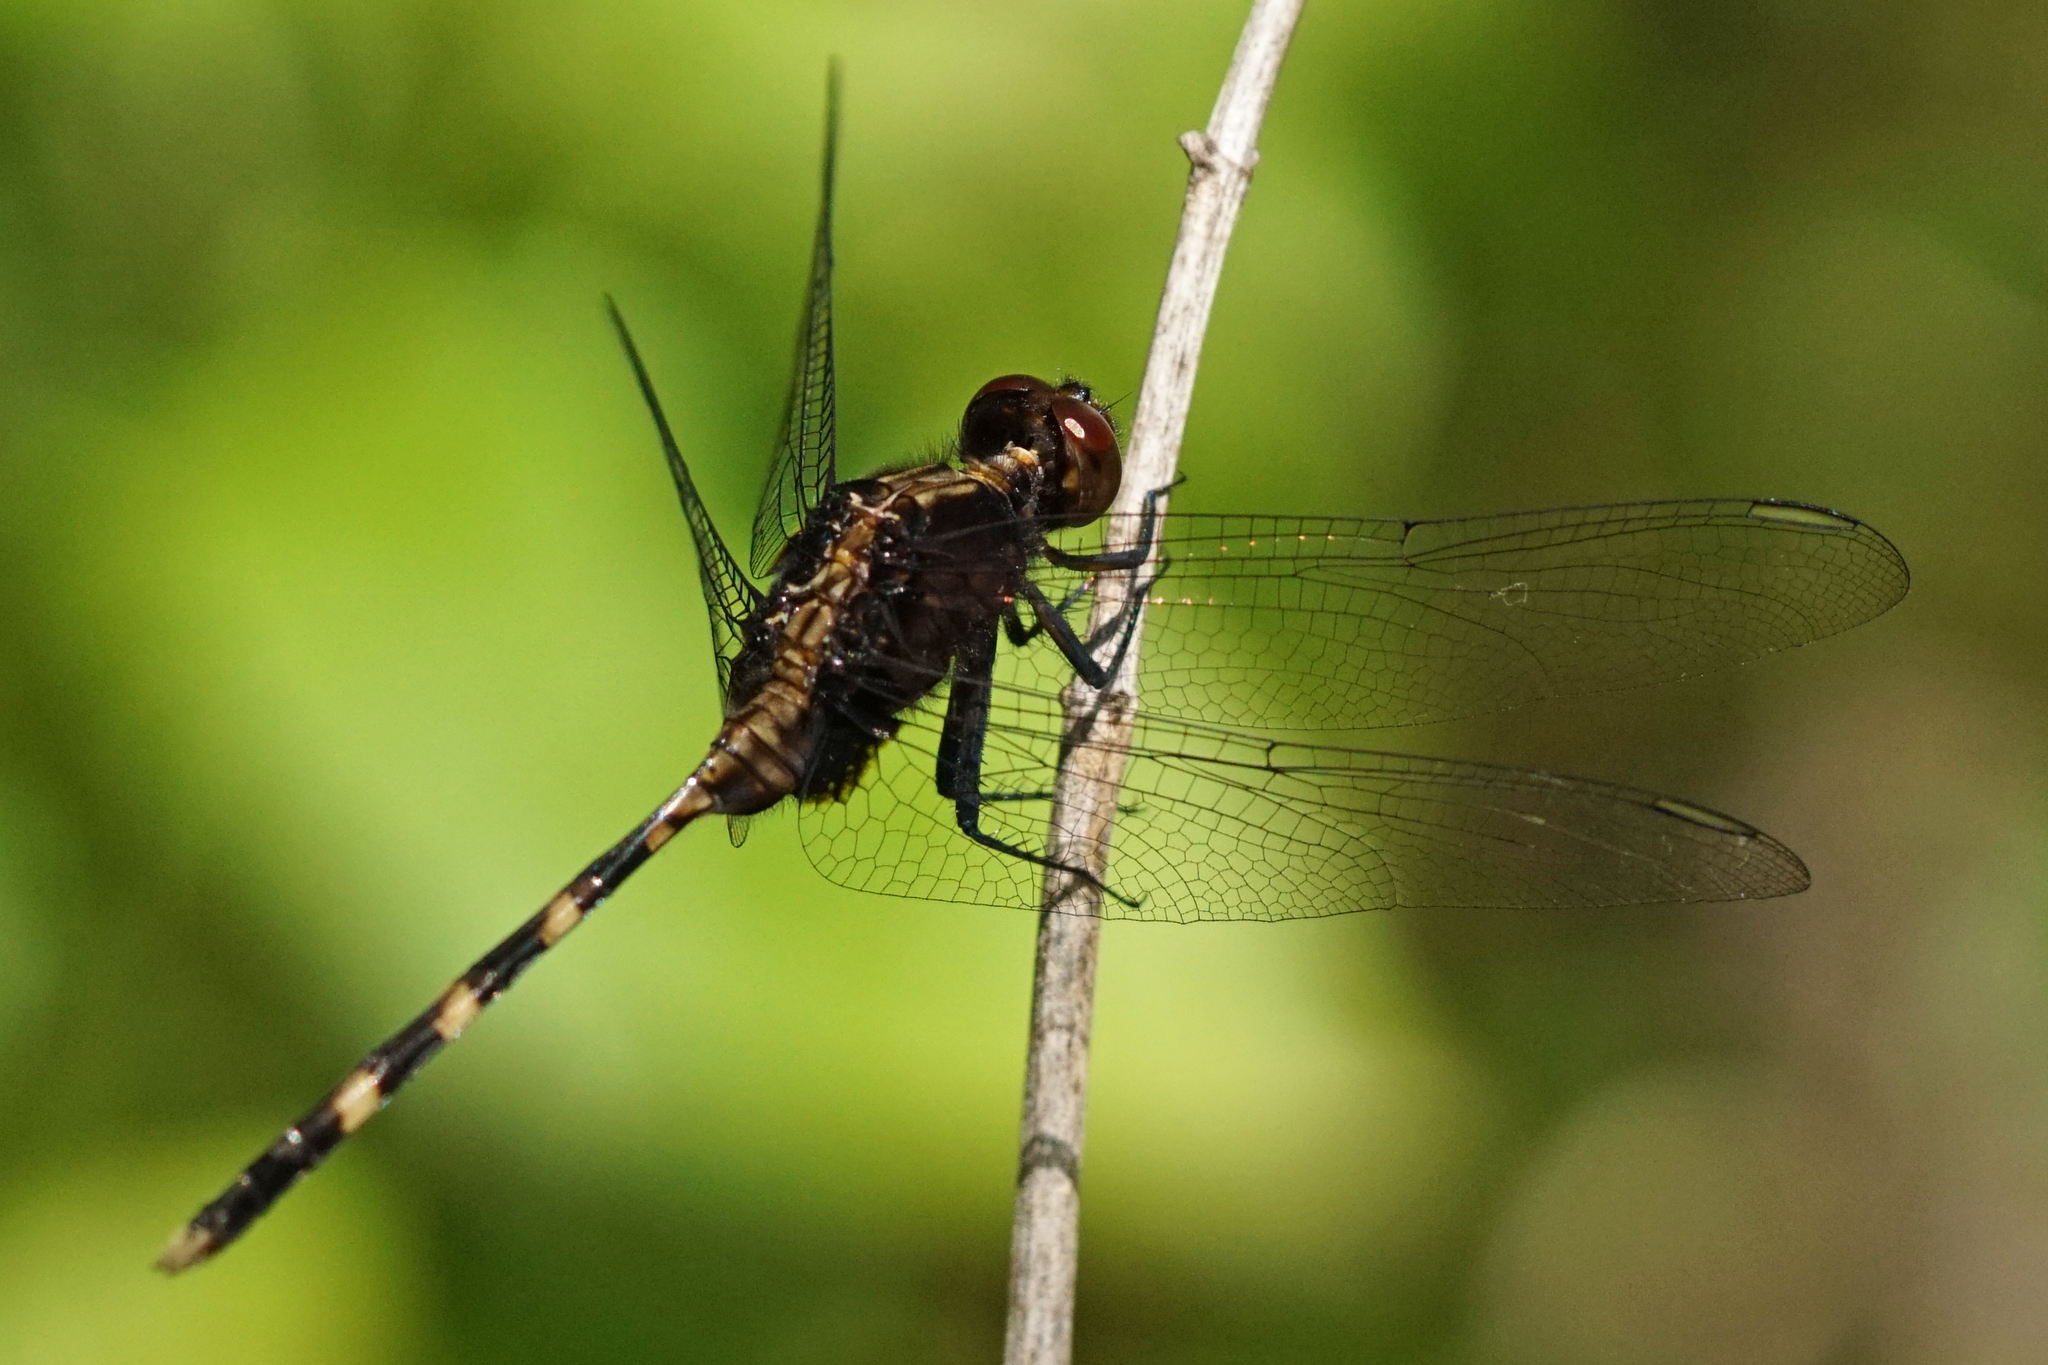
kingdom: Animalia
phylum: Arthropoda
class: Insecta
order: Odonata
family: Libellulidae
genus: Erythemis
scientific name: Erythemis plebeja
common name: Pin-tailed pondhawk
